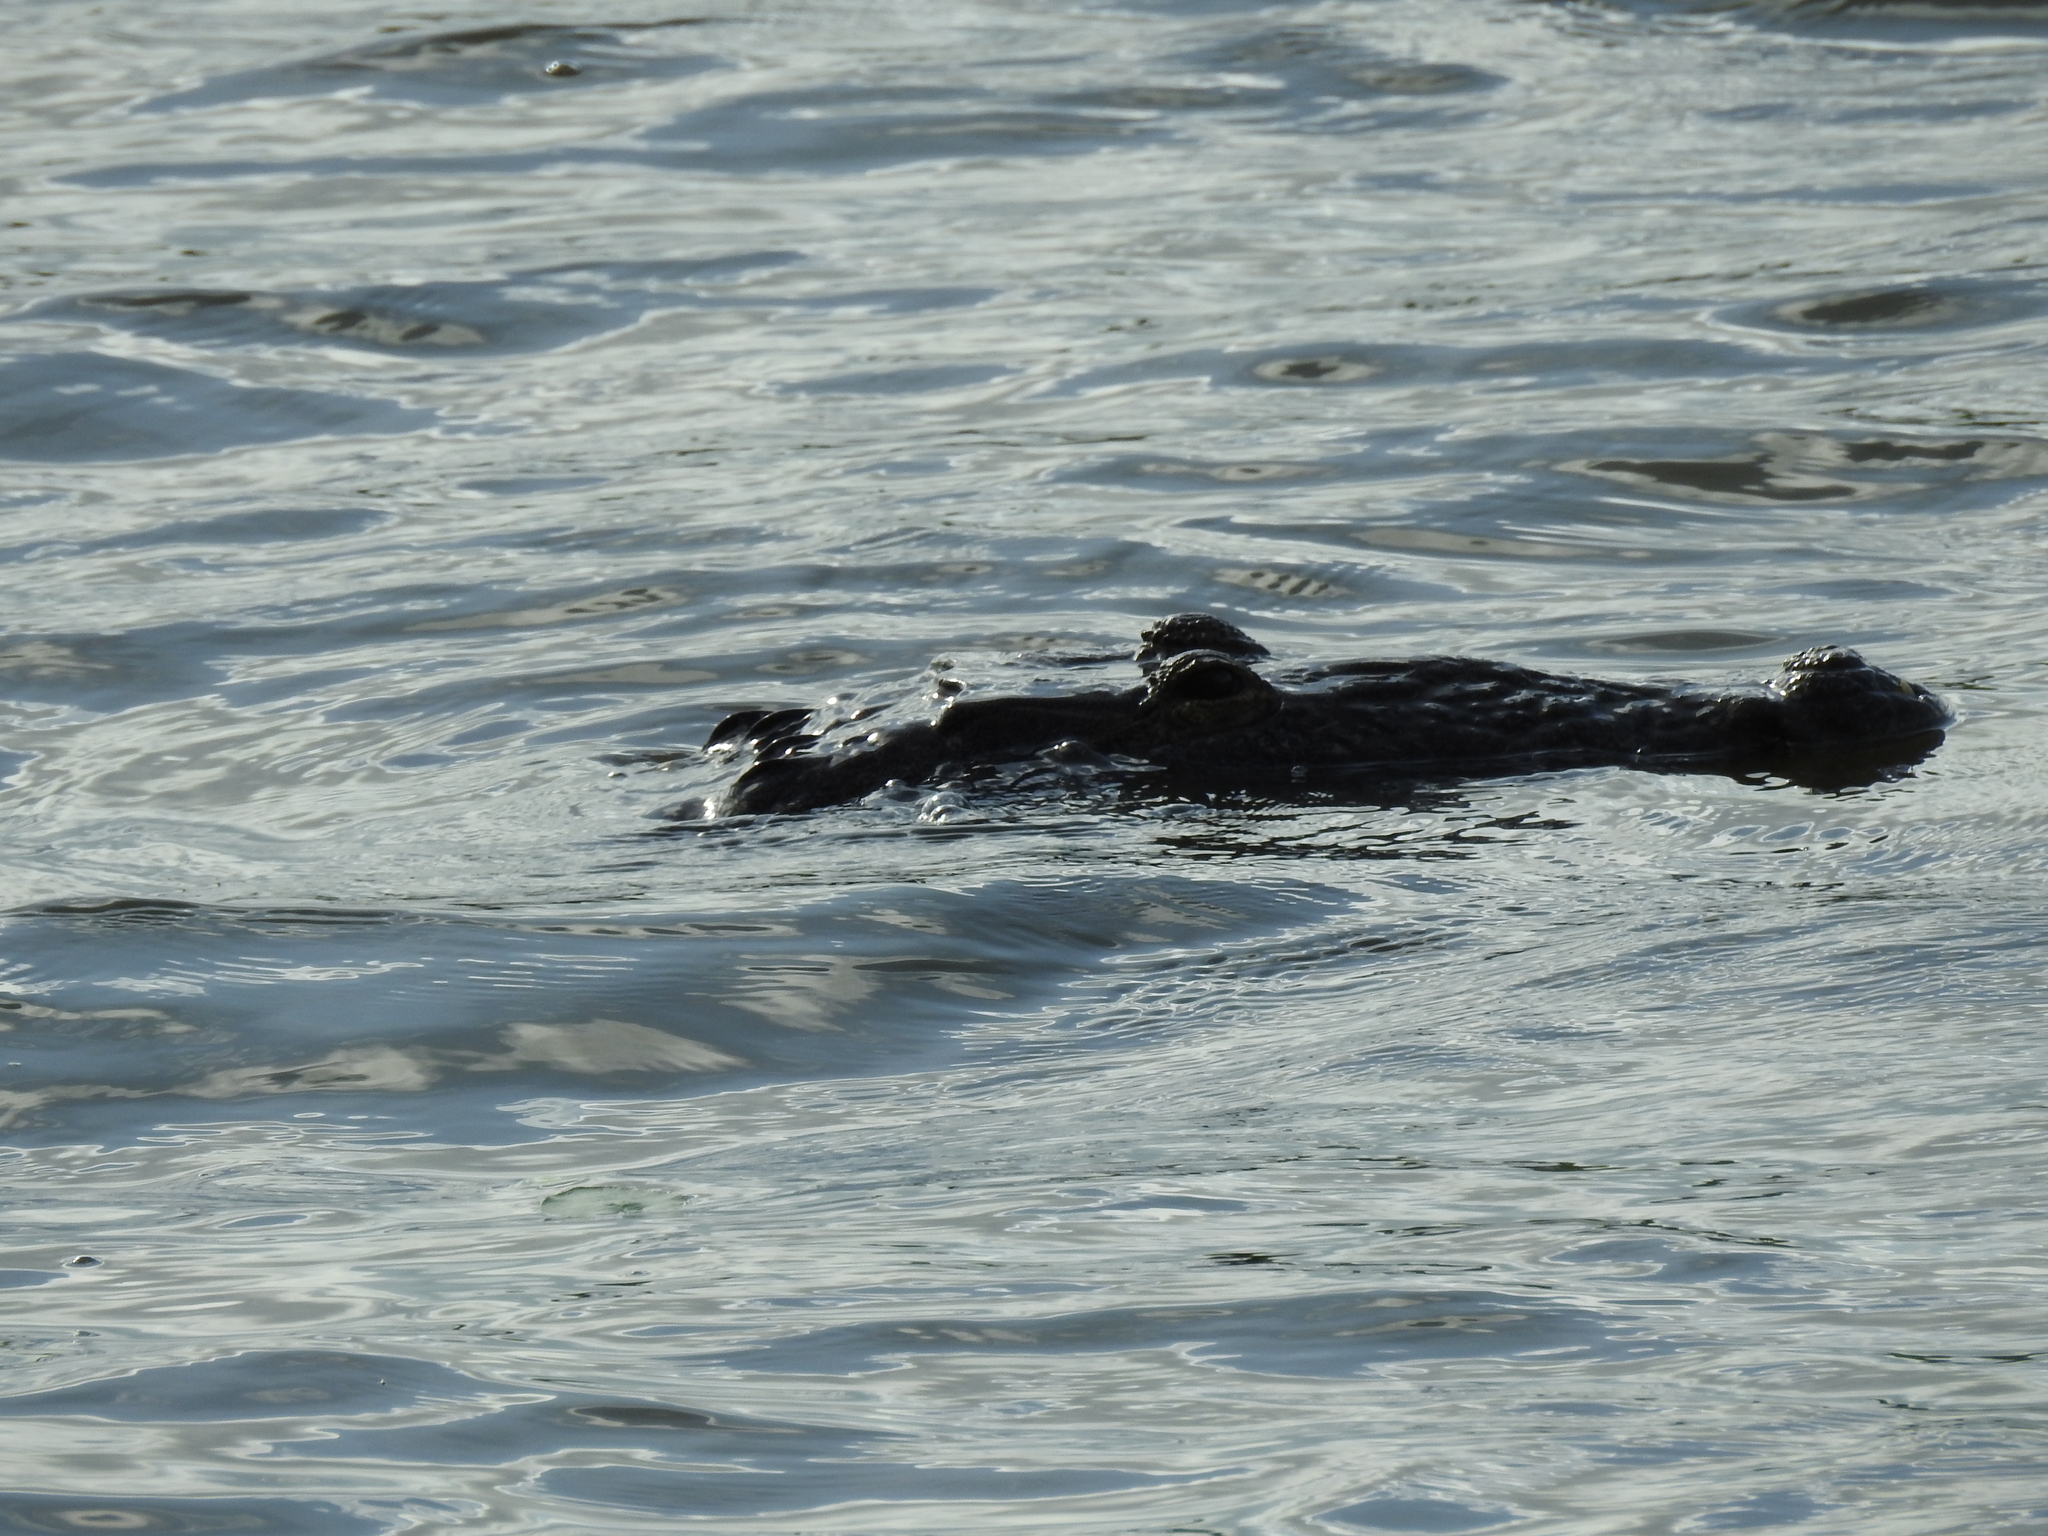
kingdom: Animalia
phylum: Chordata
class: Crocodylia
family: Crocodylidae
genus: Crocodylus
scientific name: Crocodylus moreletii
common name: Morelet's crocodile
